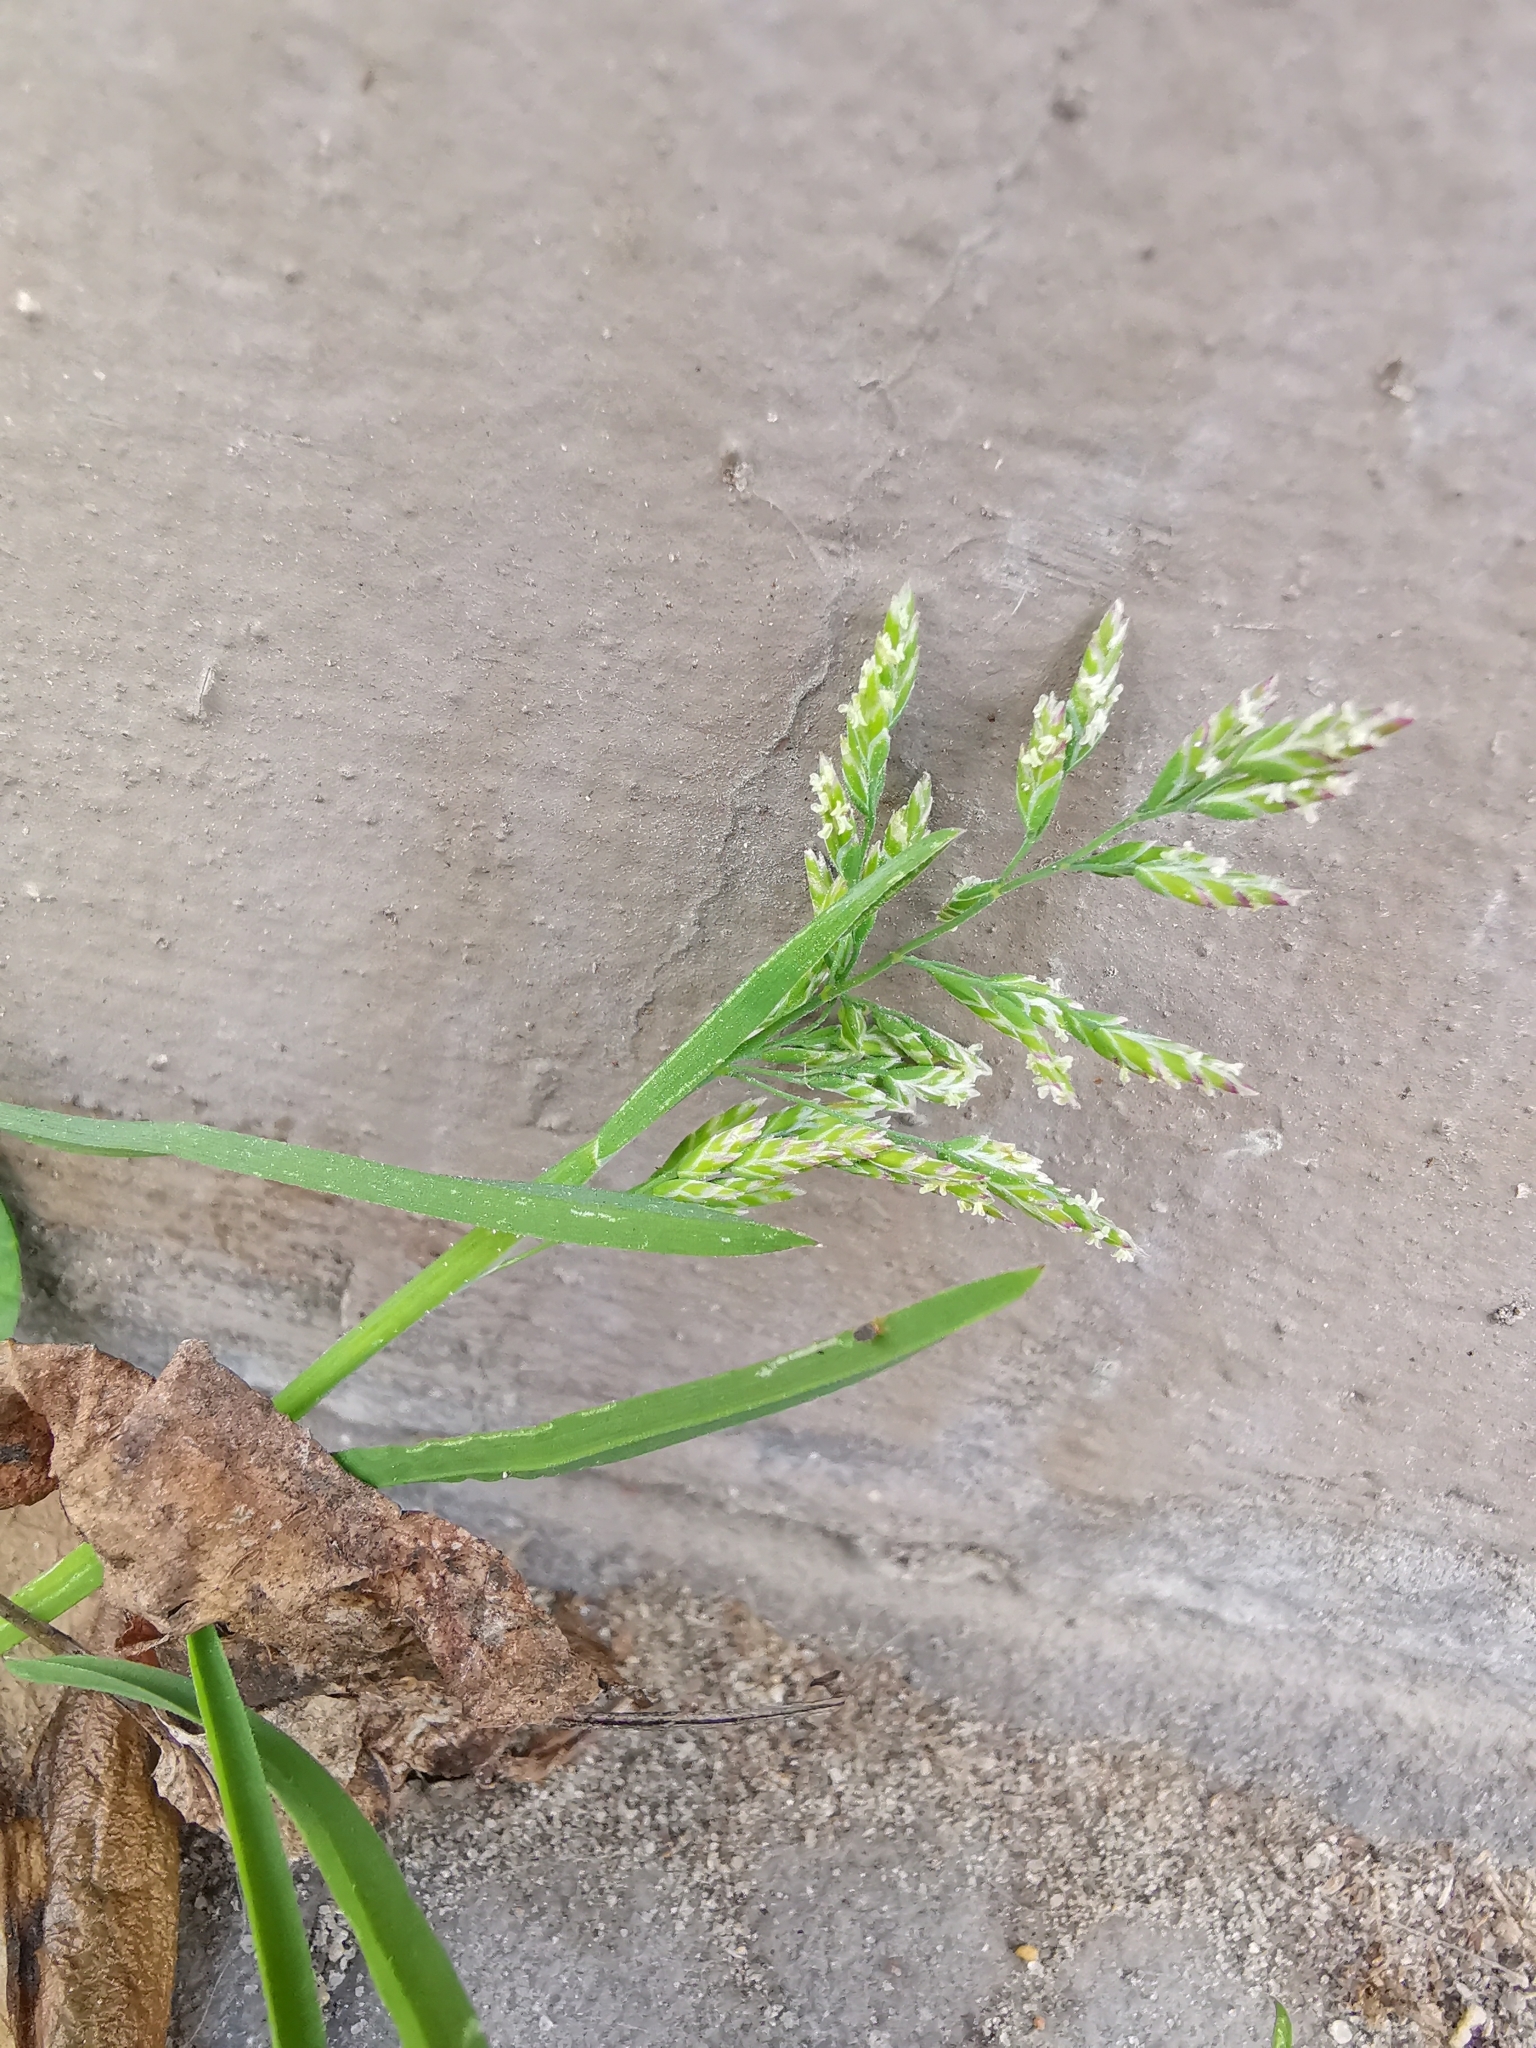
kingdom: Plantae
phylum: Tracheophyta
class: Liliopsida
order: Poales
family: Poaceae
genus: Poa
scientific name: Poa annua
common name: Annual bluegrass
